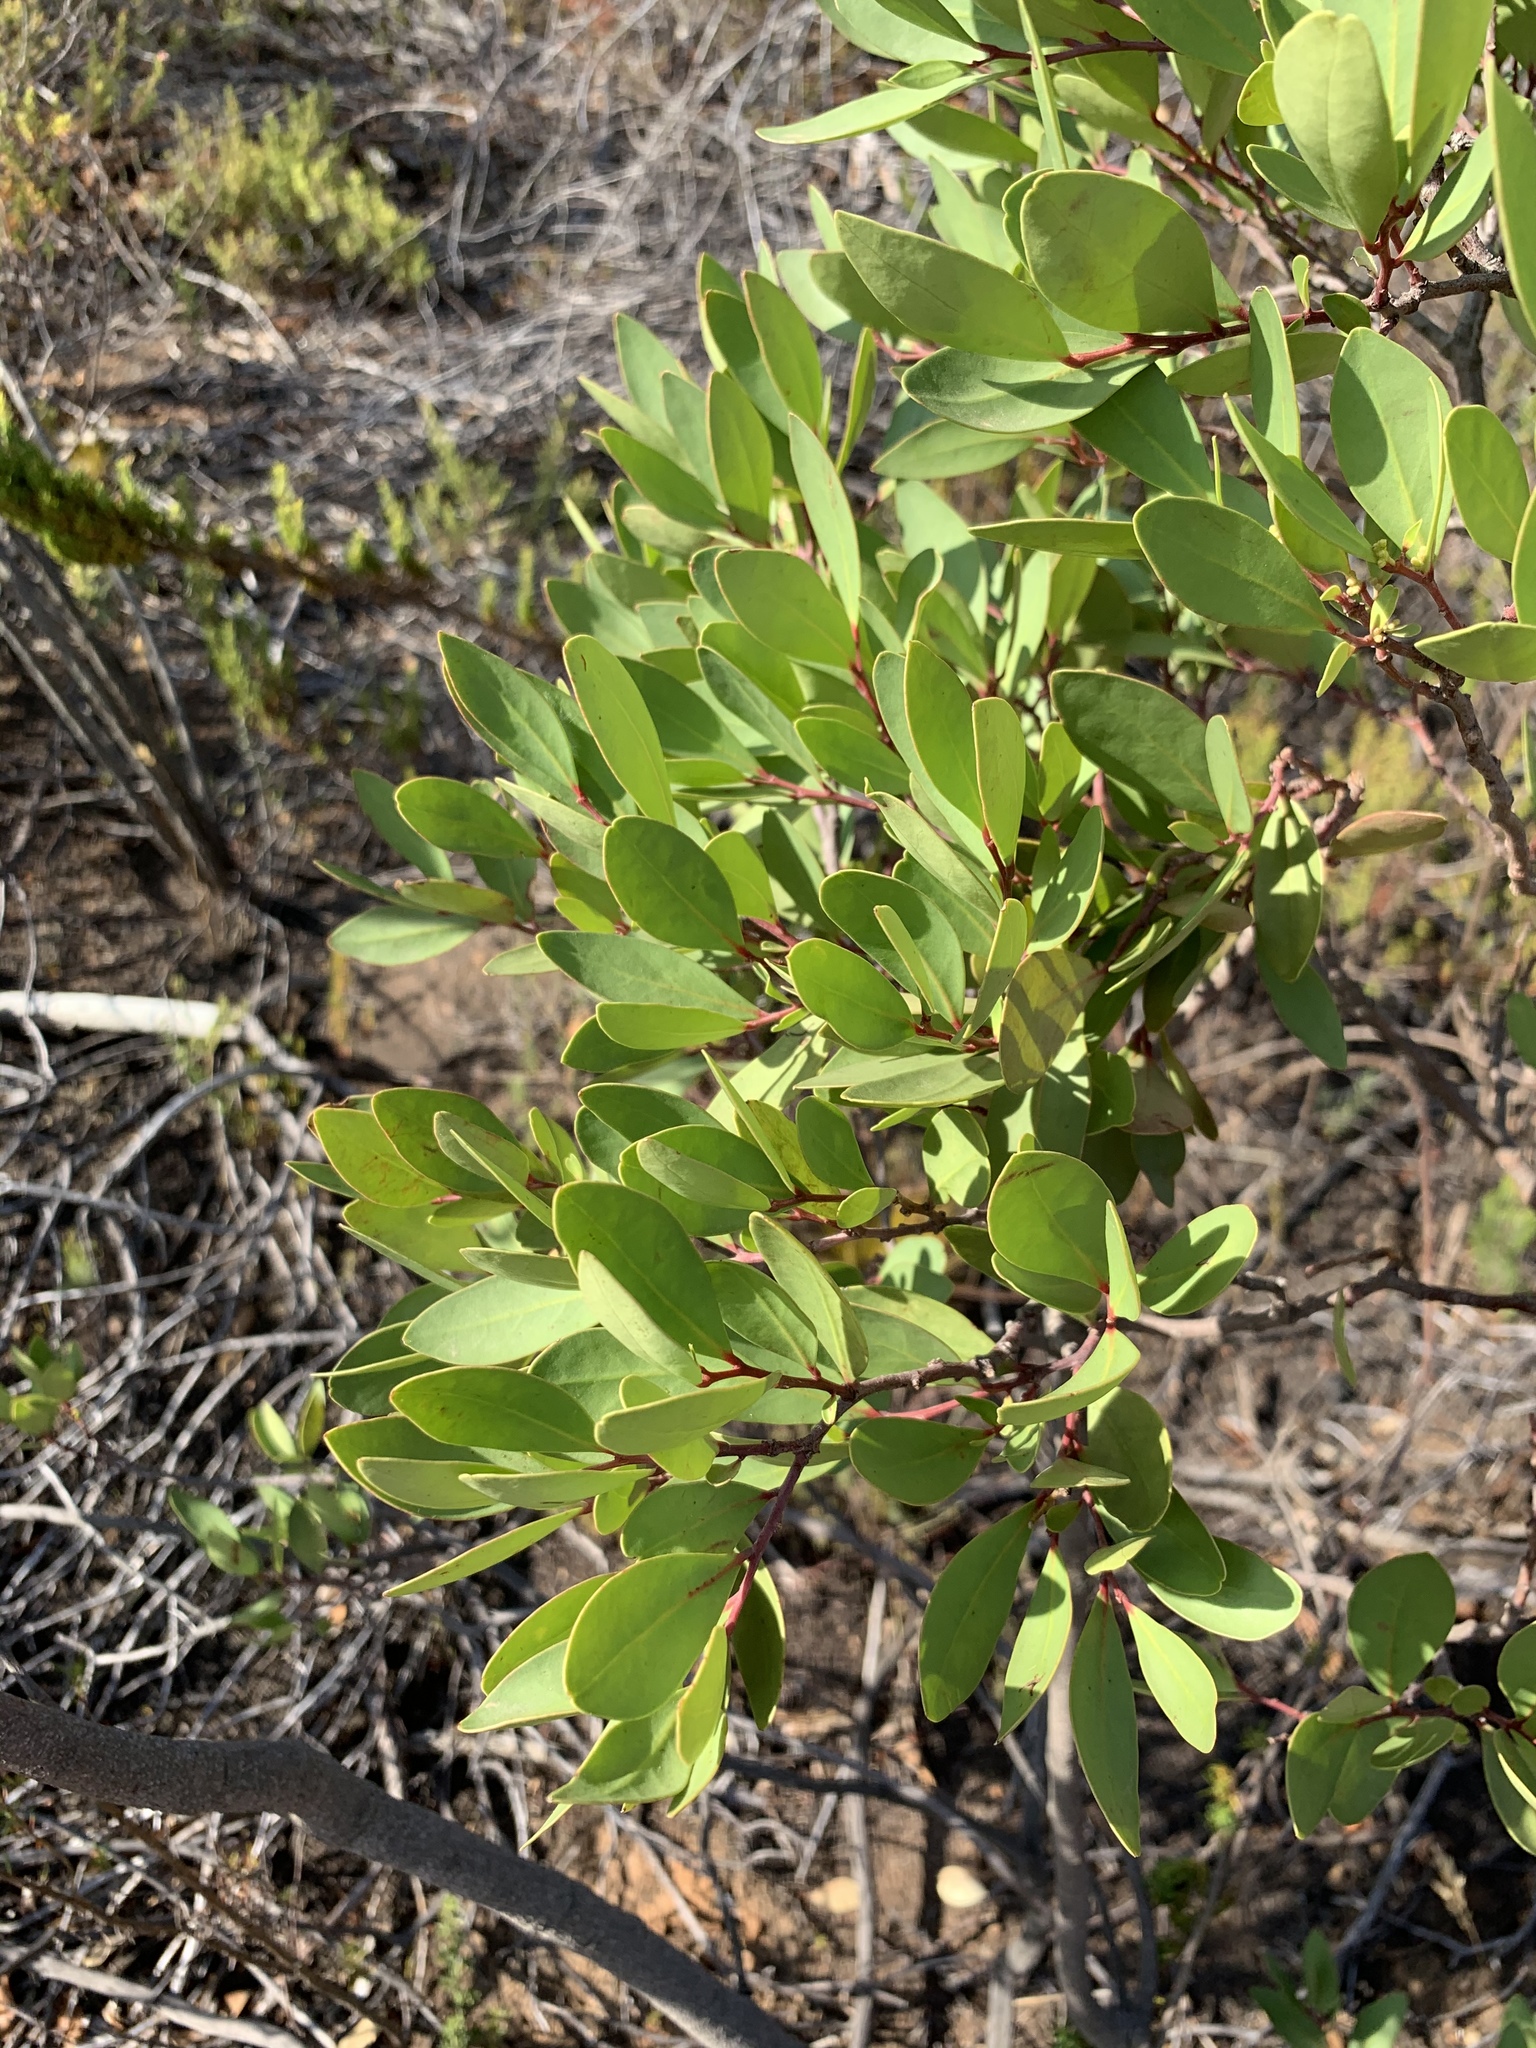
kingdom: Plantae
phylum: Tracheophyta
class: Magnoliopsida
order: Celastrales
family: Celastraceae
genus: Gymnosporia
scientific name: Gymnosporia laurina
